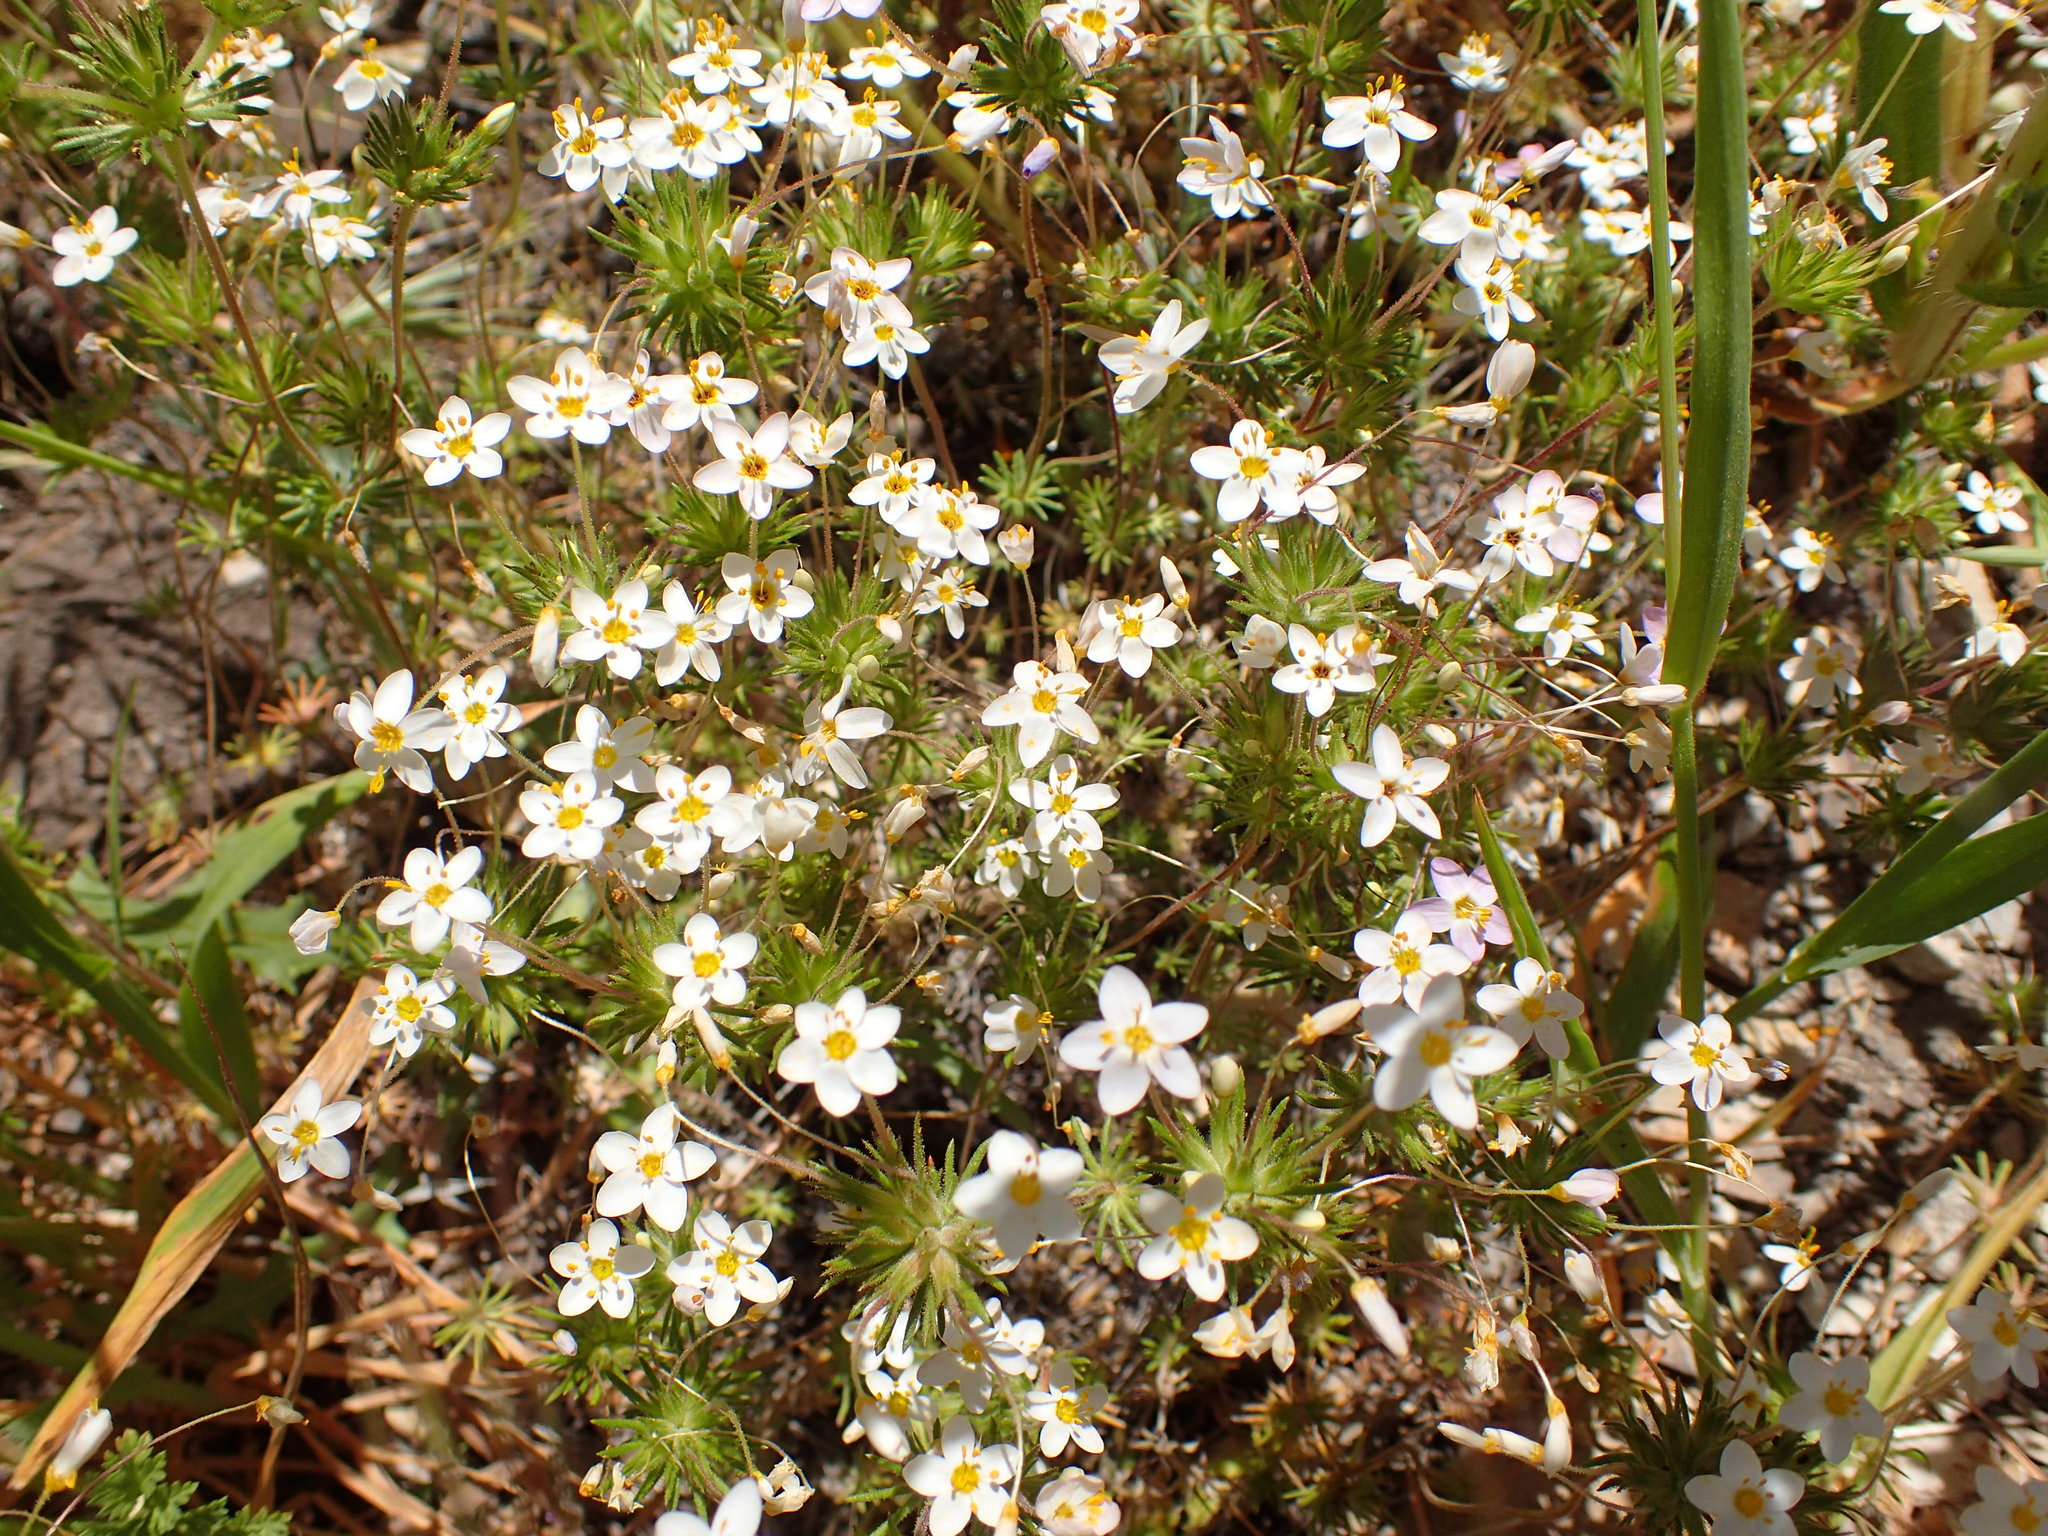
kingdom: Plantae
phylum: Tracheophyta
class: Magnoliopsida
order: Ericales
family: Polemoniaceae
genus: Leptosiphon
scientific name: Leptosiphon parviflorus
